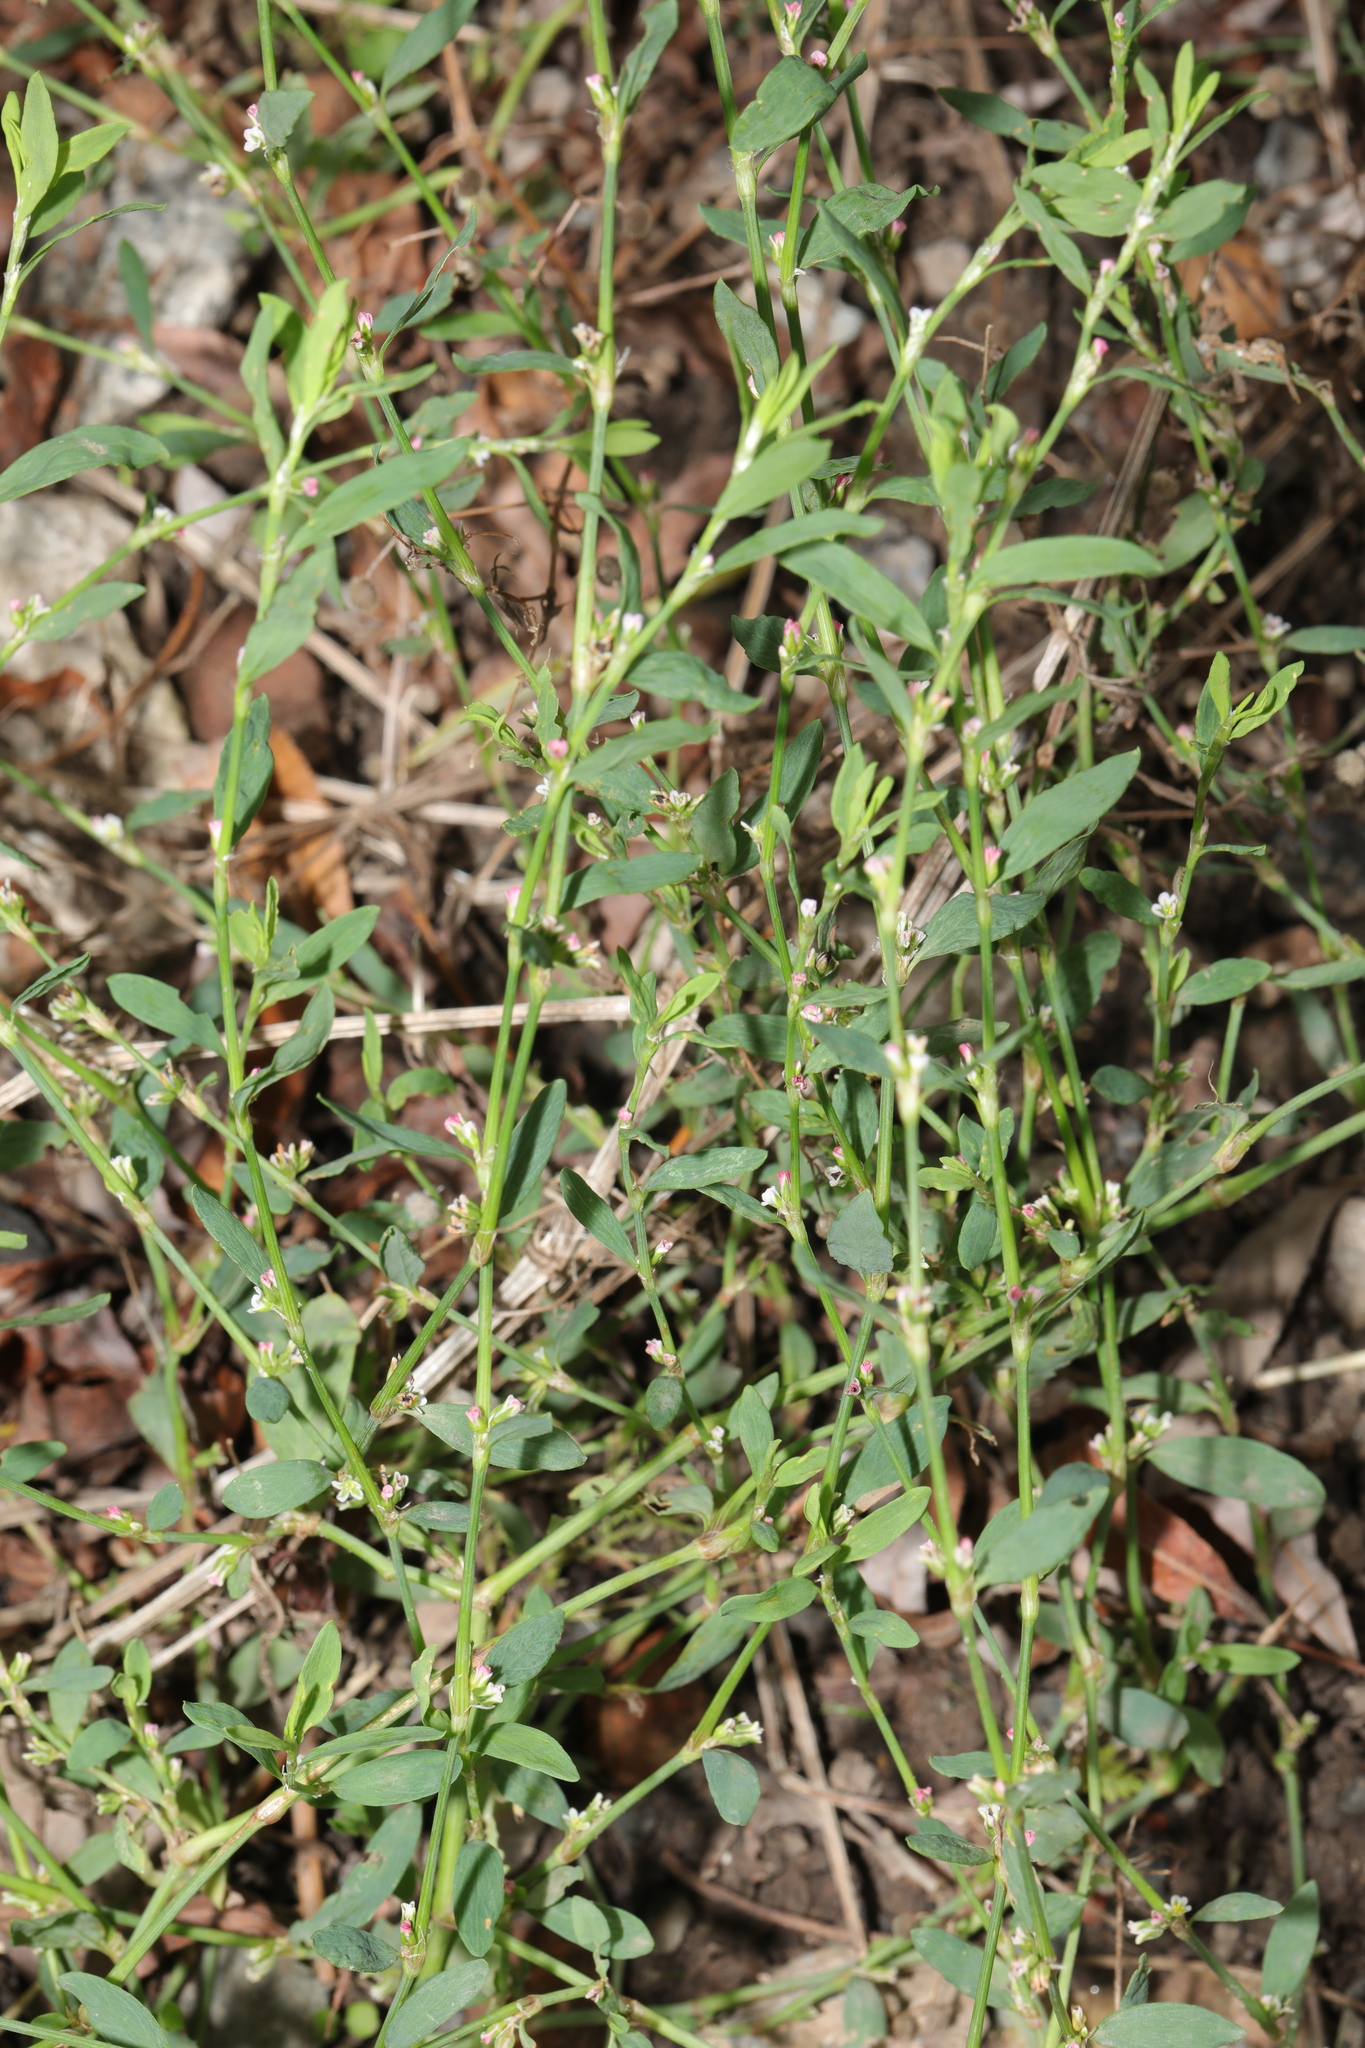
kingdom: Plantae
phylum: Tracheophyta
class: Magnoliopsida
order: Caryophyllales
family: Polygonaceae
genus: Polygonum
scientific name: Polygonum aviculare
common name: Prostrate knotweed
